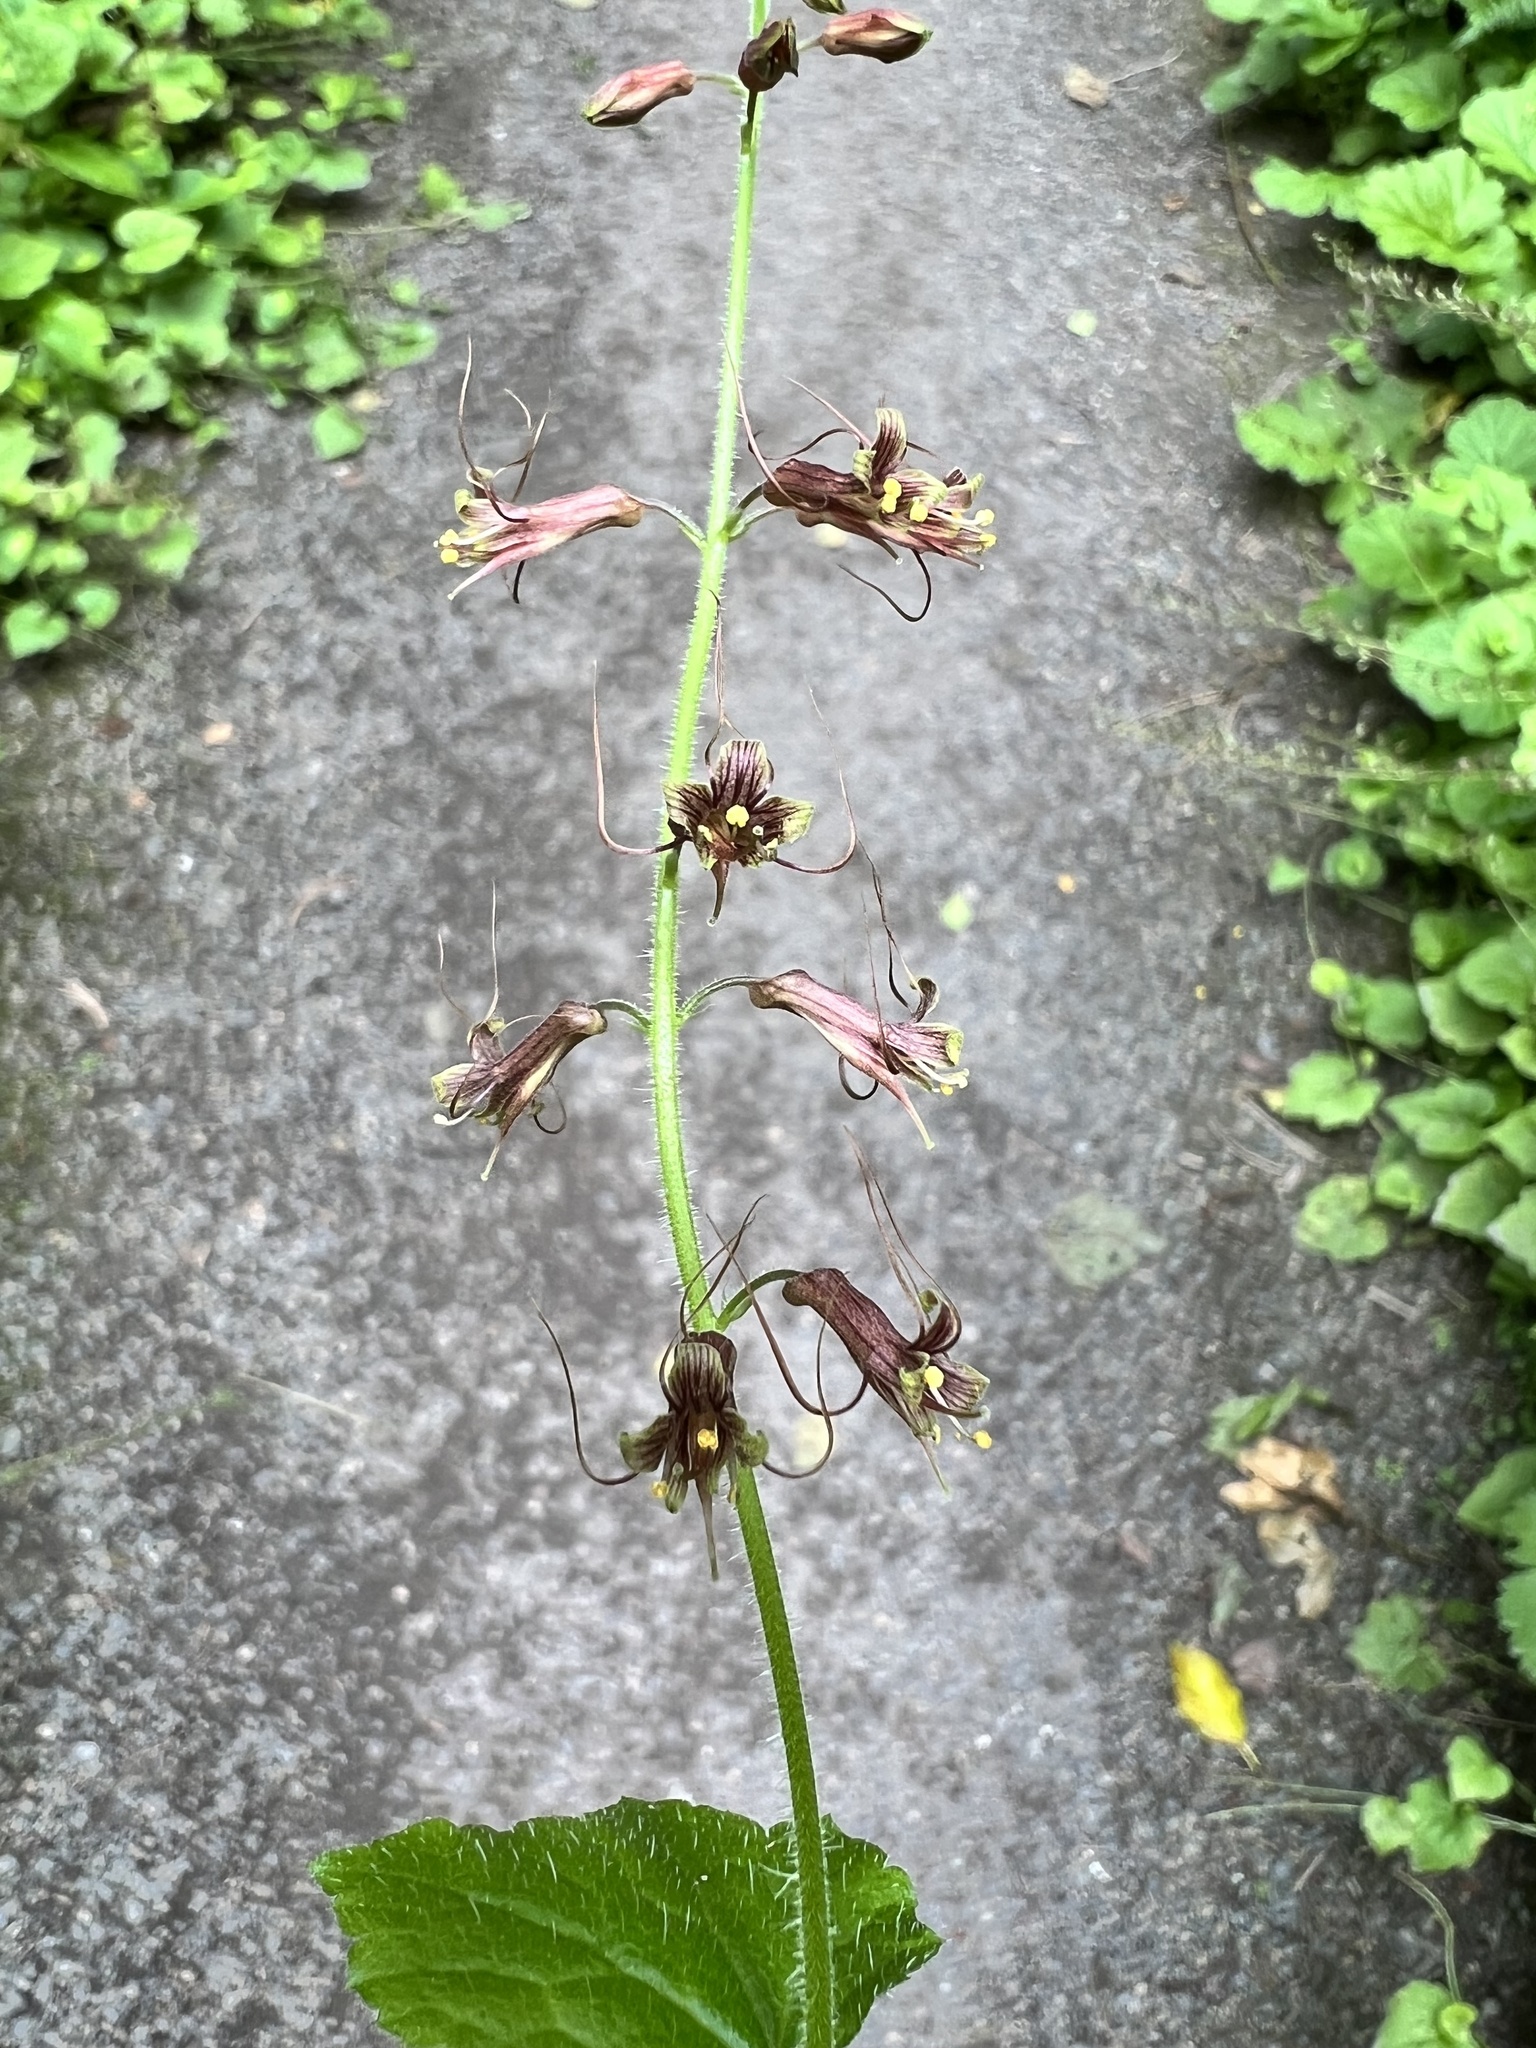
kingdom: Plantae
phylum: Tracheophyta
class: Magnoliopsida
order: Saxifragales
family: Saxifragaceae
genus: Tolmiea
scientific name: Tolmiea menziesii
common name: Pick-a-back-plant
